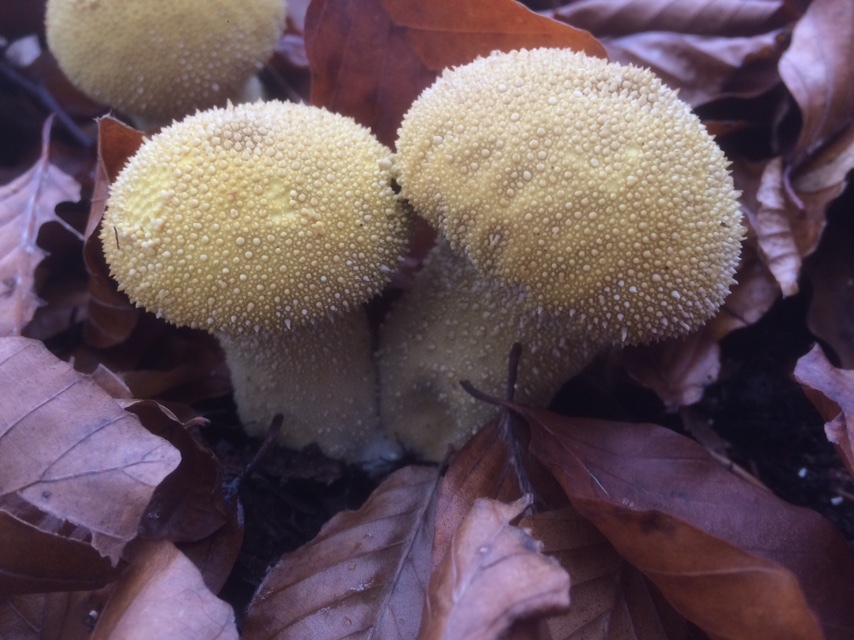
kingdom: Fungi
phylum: Basidiomycota
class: Agaricomycetes
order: Agaricales
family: Lycoperdaceae
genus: Lycoperdon
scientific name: Lycoperdon perlatum
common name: Common puffball
